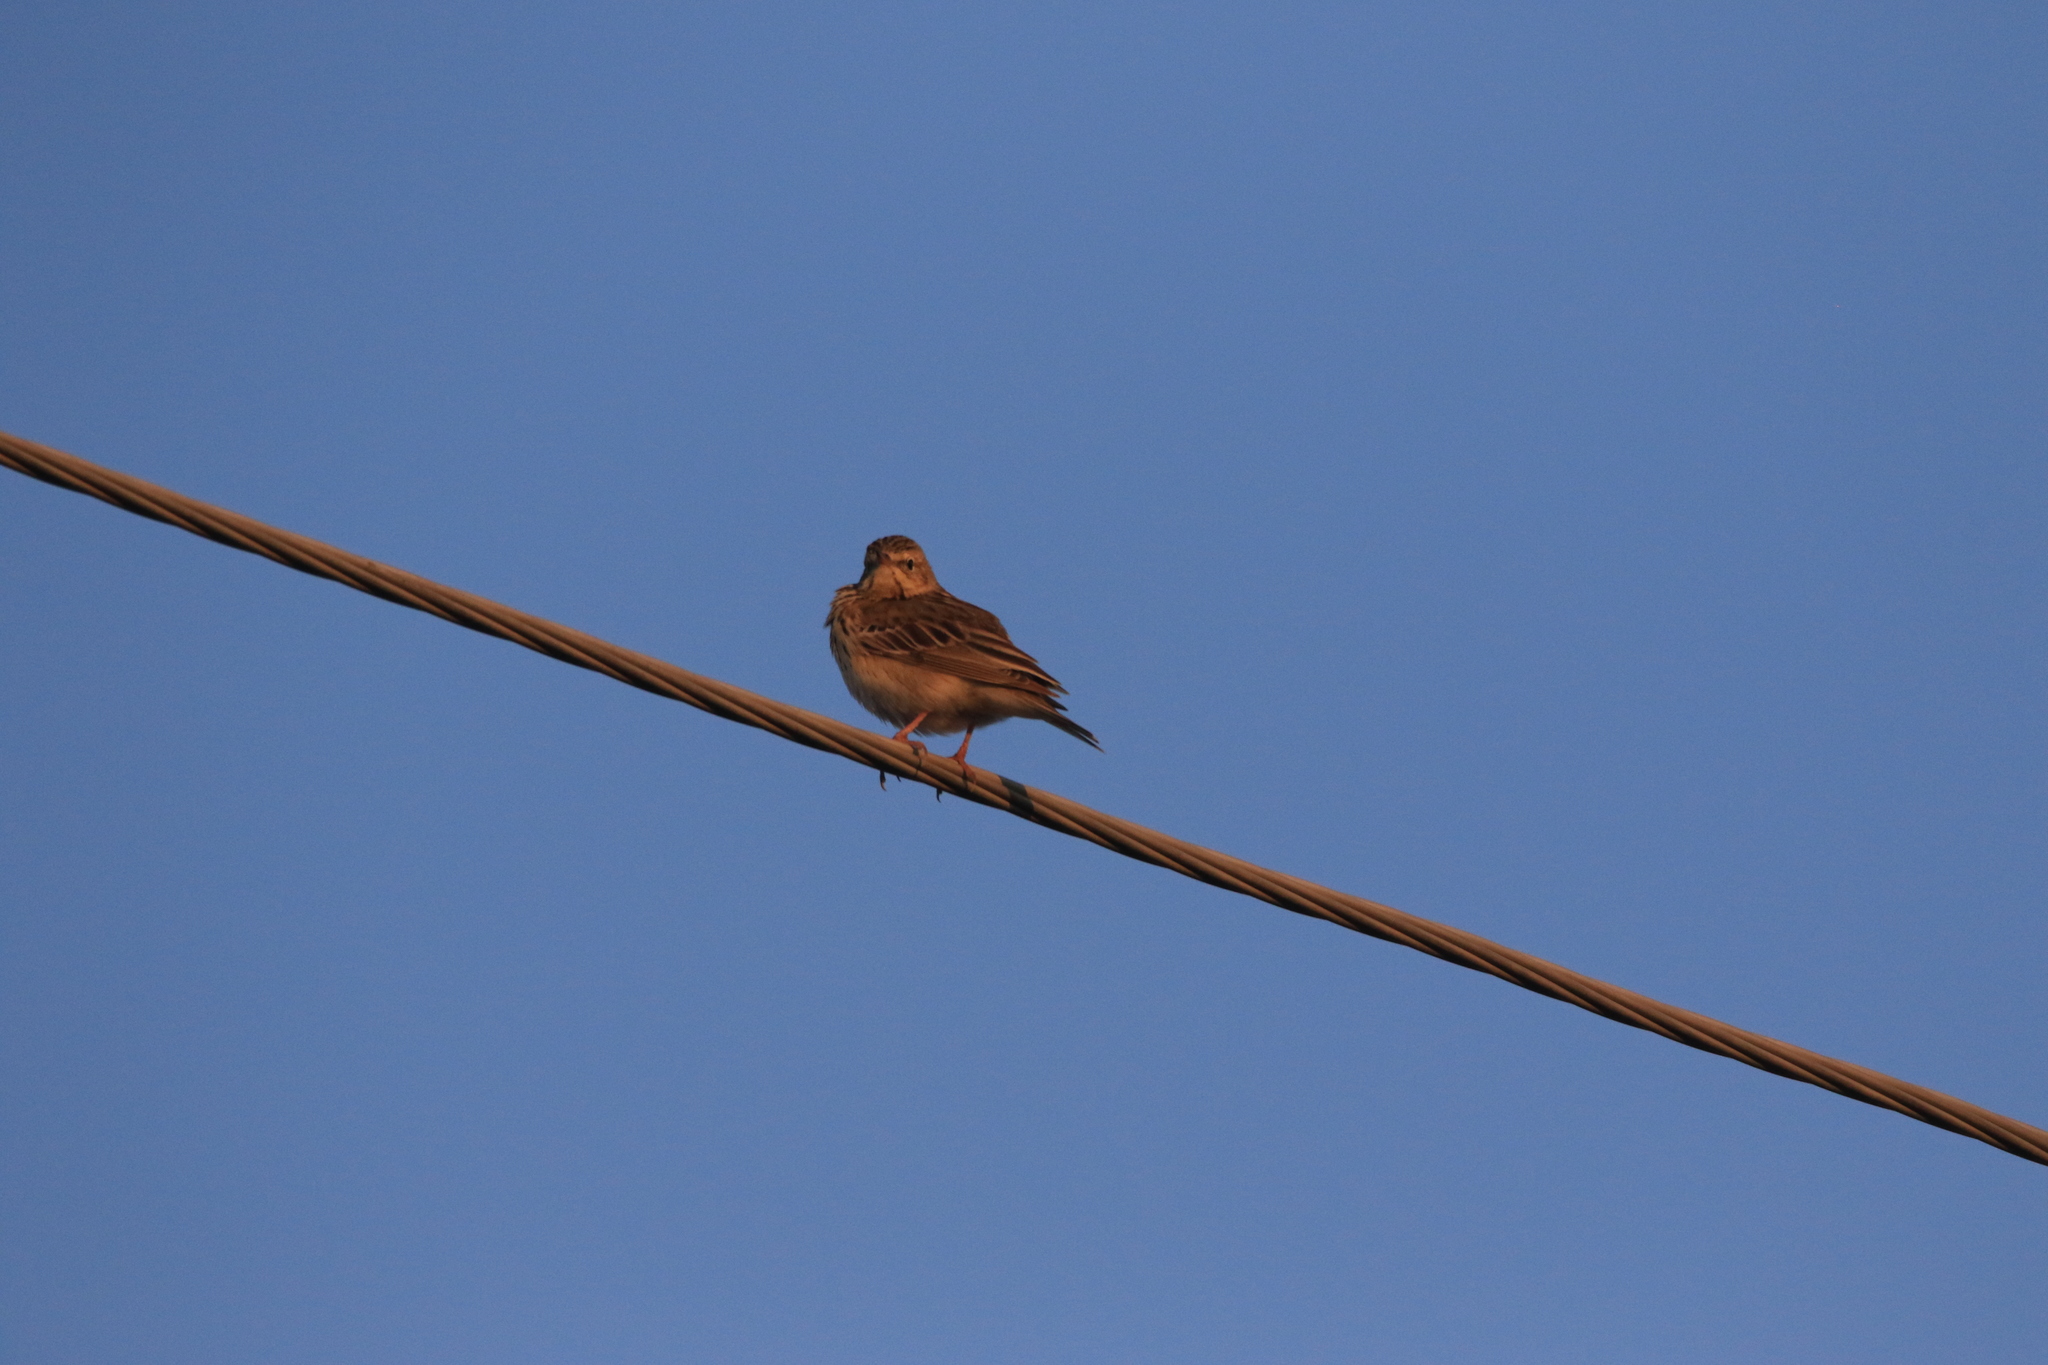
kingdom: Animalia
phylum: Chordata
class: Aves
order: Passeriformes
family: Motacillidae
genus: Anthus
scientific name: Anthus trivialis
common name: Tree pipit
